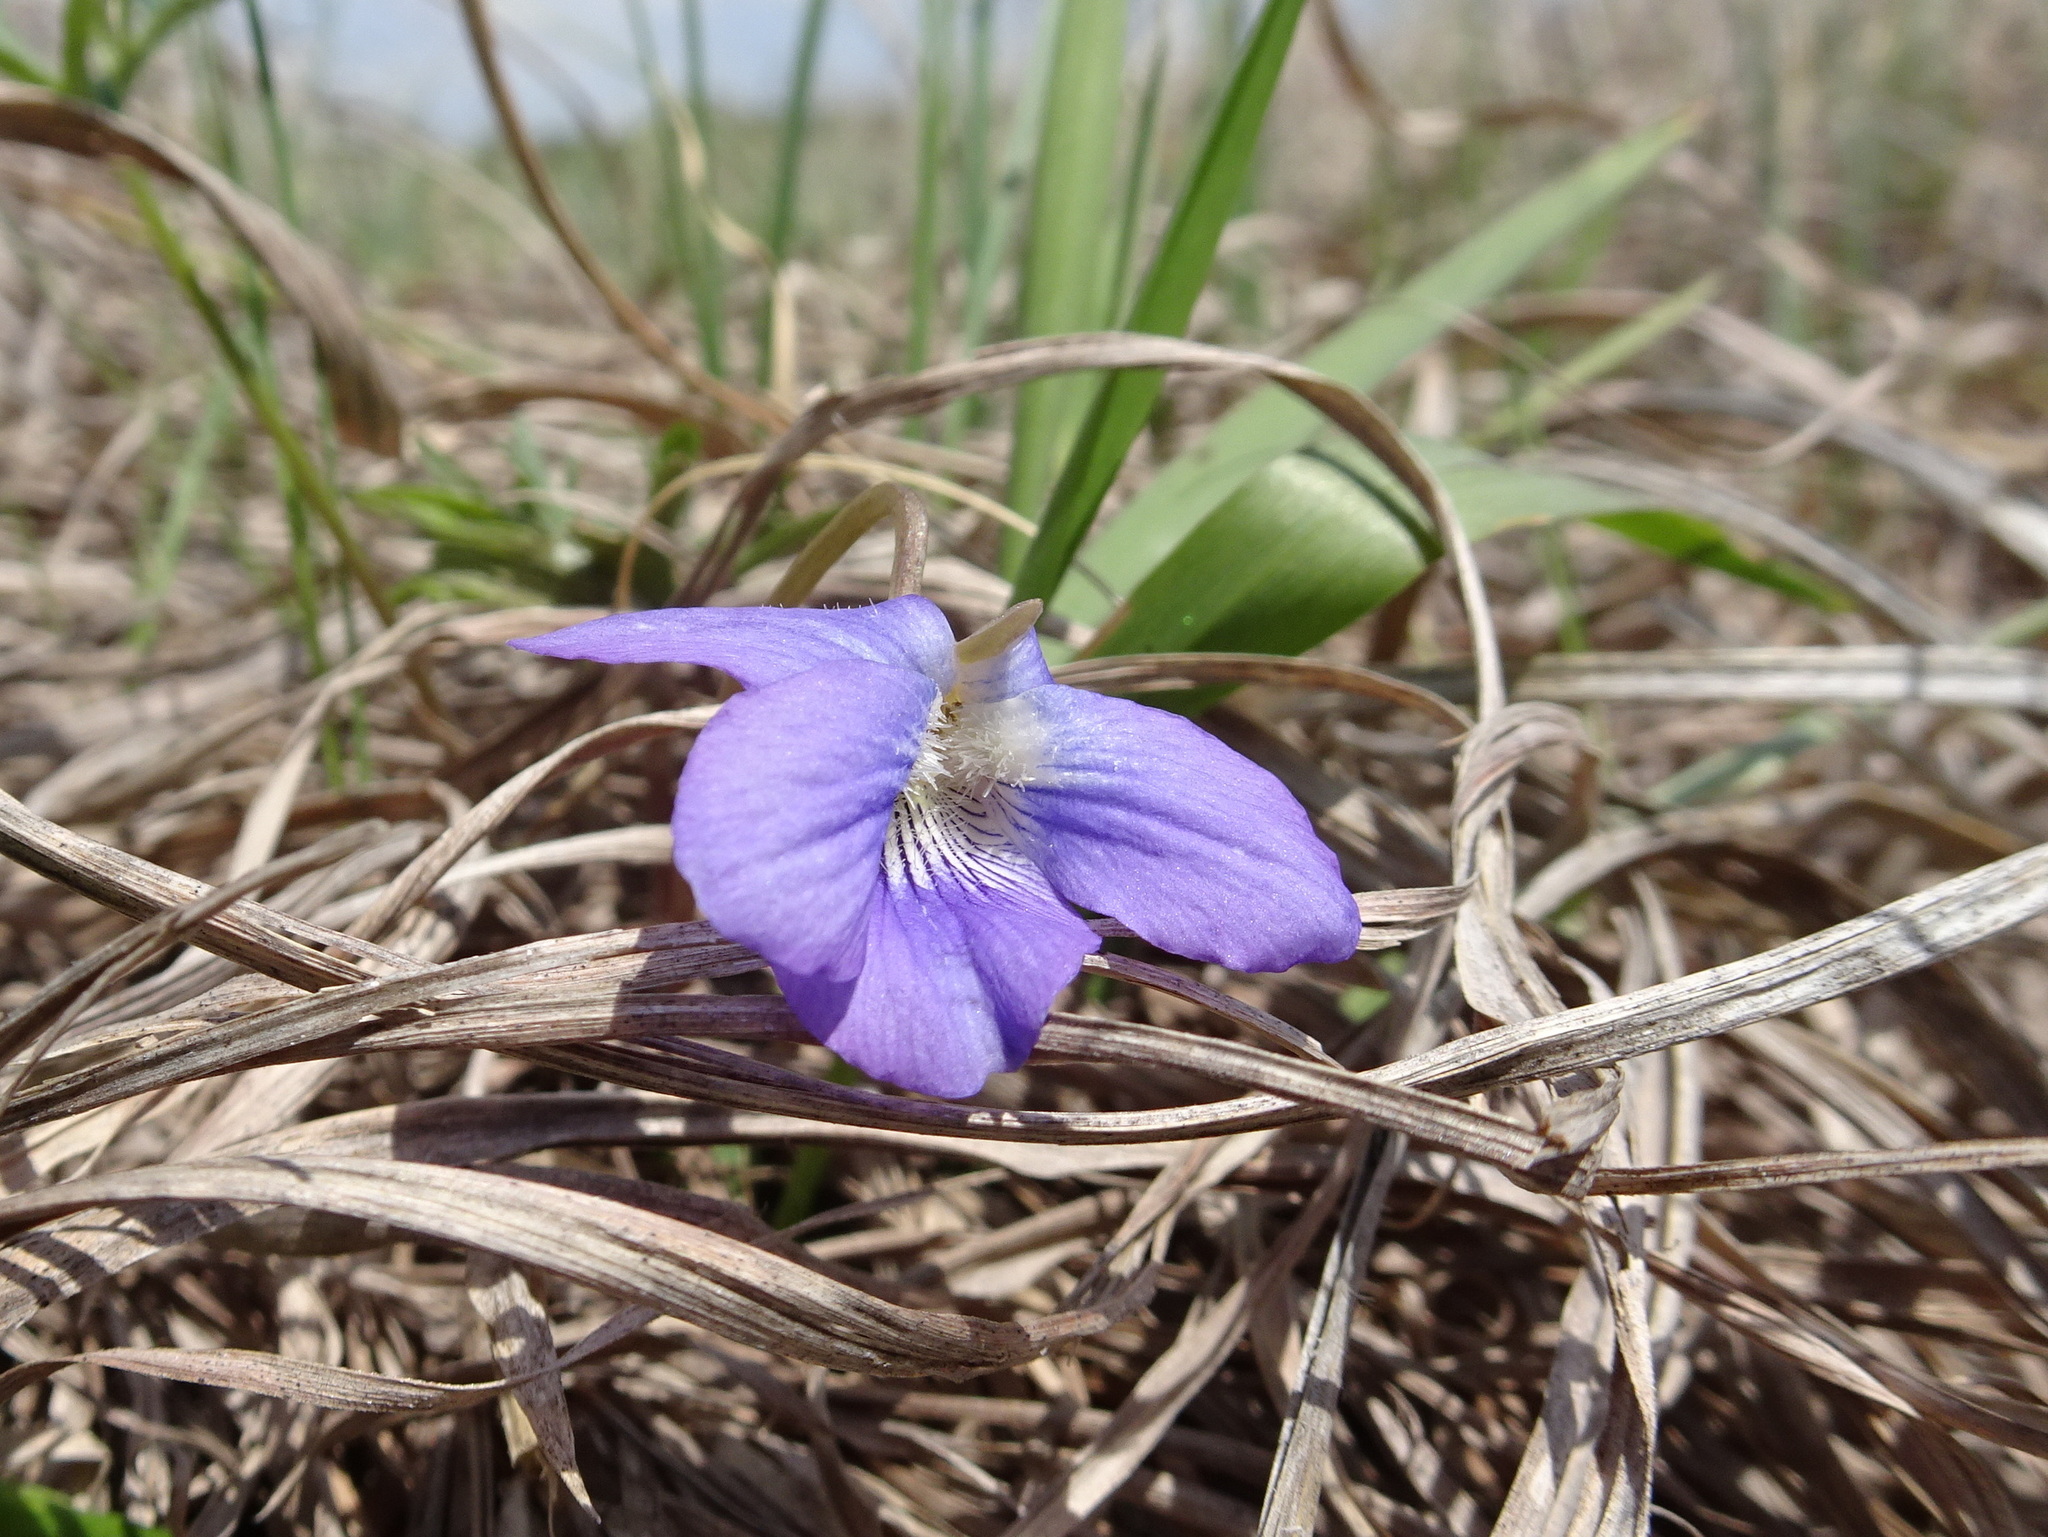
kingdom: Plantae
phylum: Tracheophyta
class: Magnoliopsida
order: Malpighiales
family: Violaceae
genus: Viola
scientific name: Viola pedatifida
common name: Prairie violet
